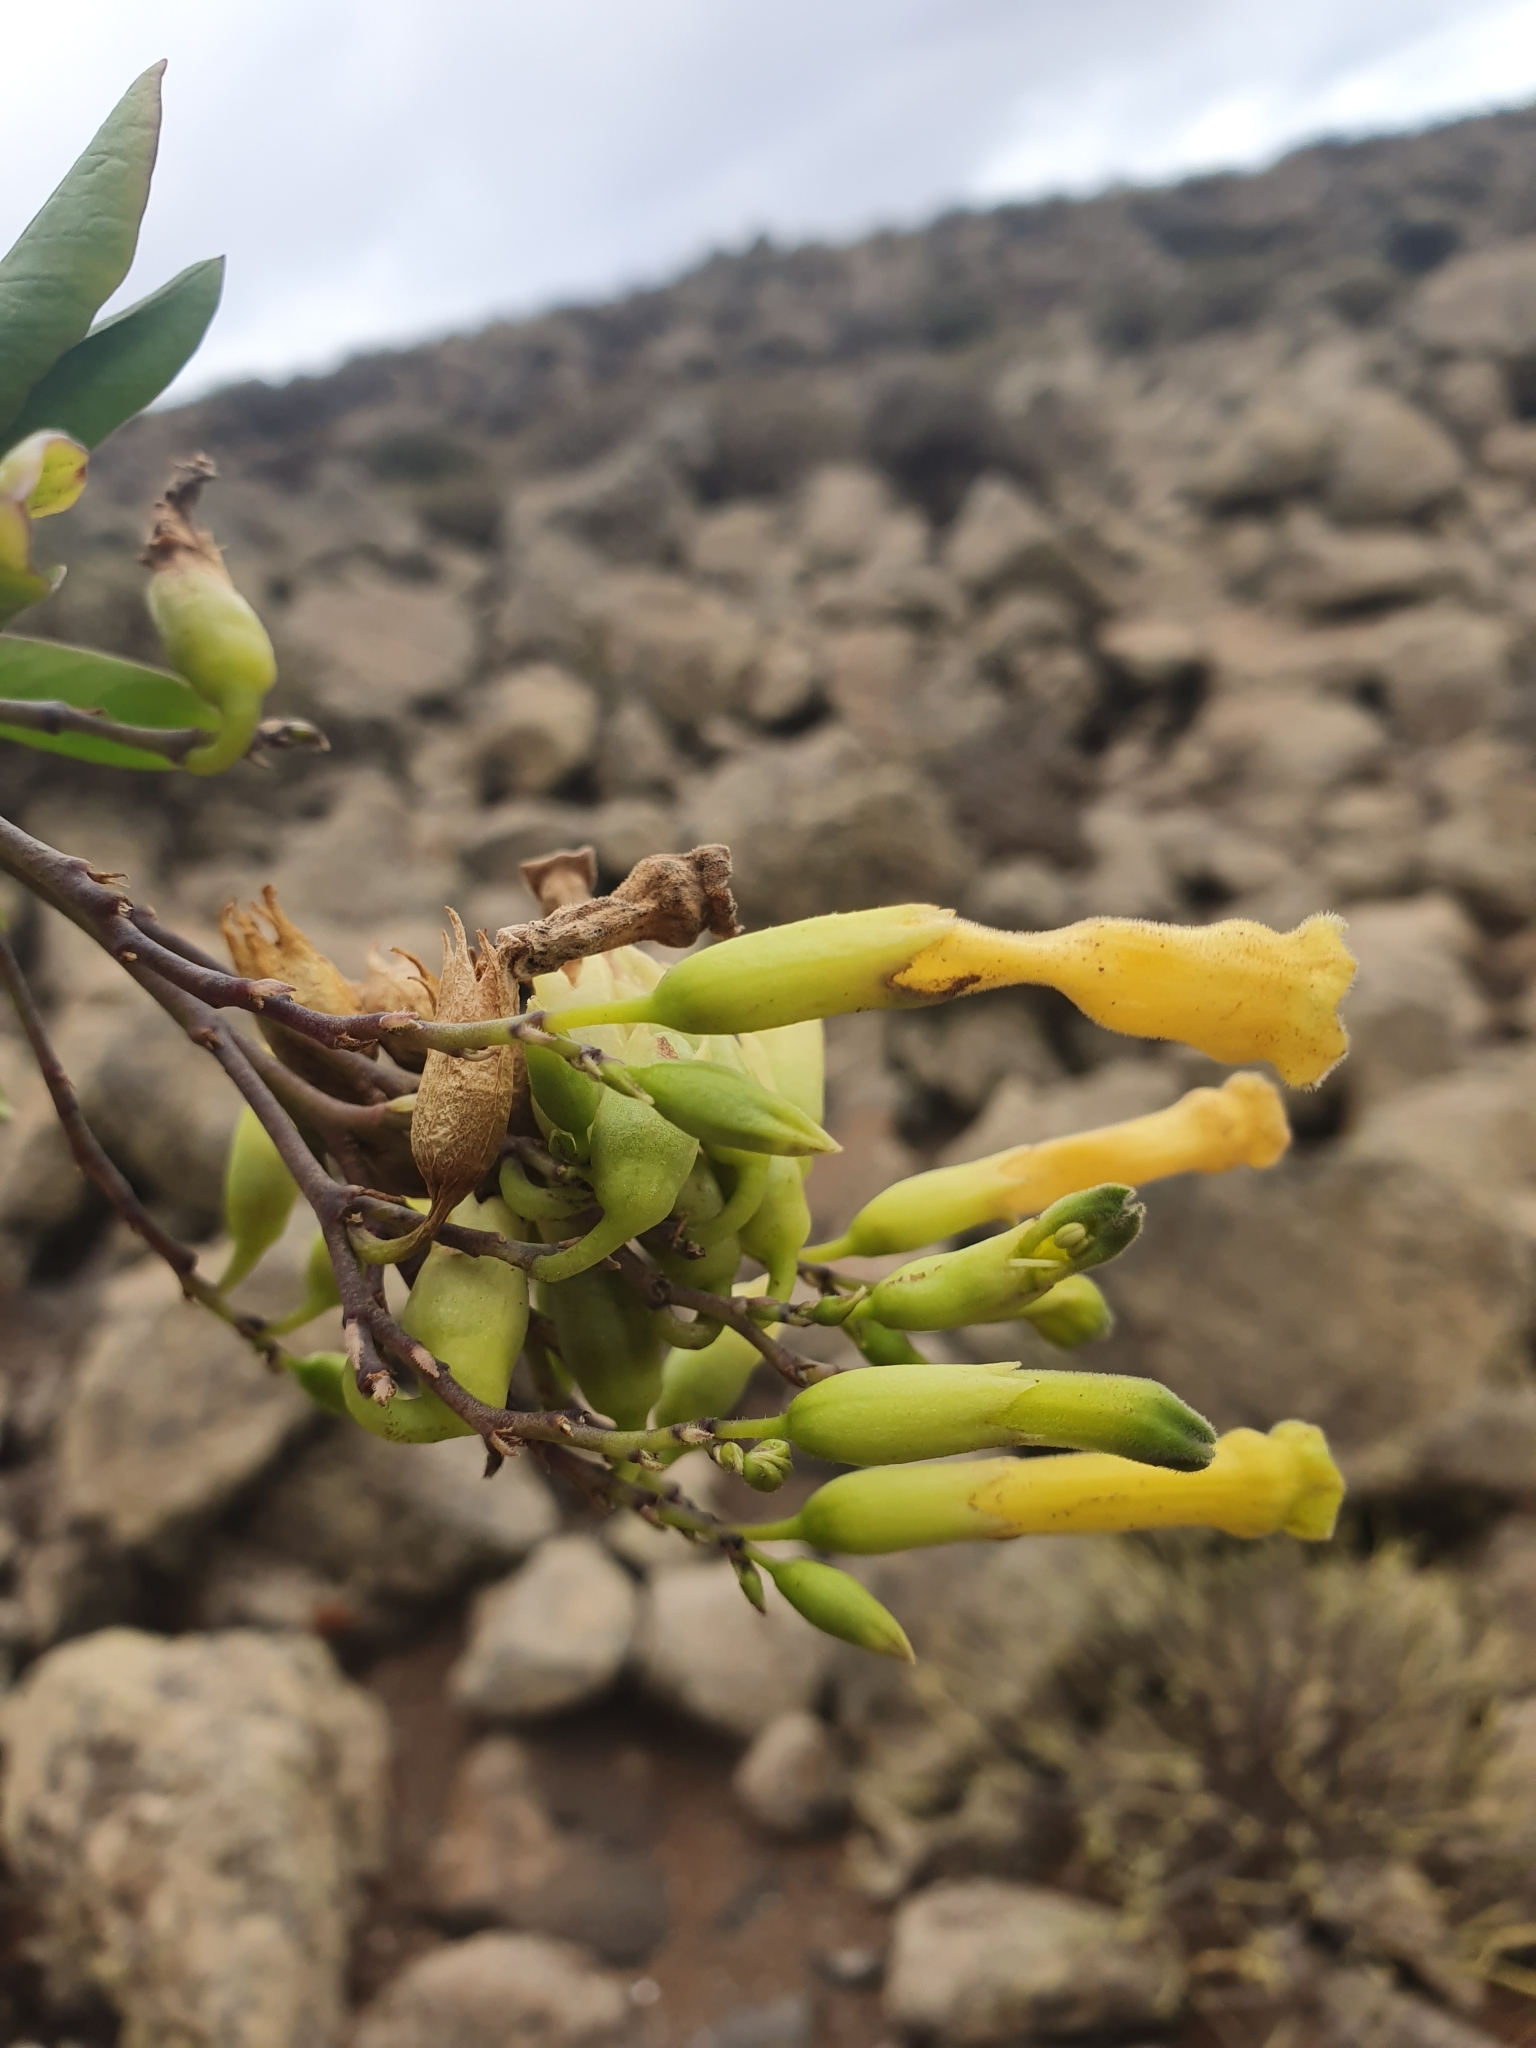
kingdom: Plantae
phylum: Tracheophyta
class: Magnoliopsida
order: Solanales
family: Solanaceae
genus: Nicotiana
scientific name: Nicotiana glauca
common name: Tree tobacco
